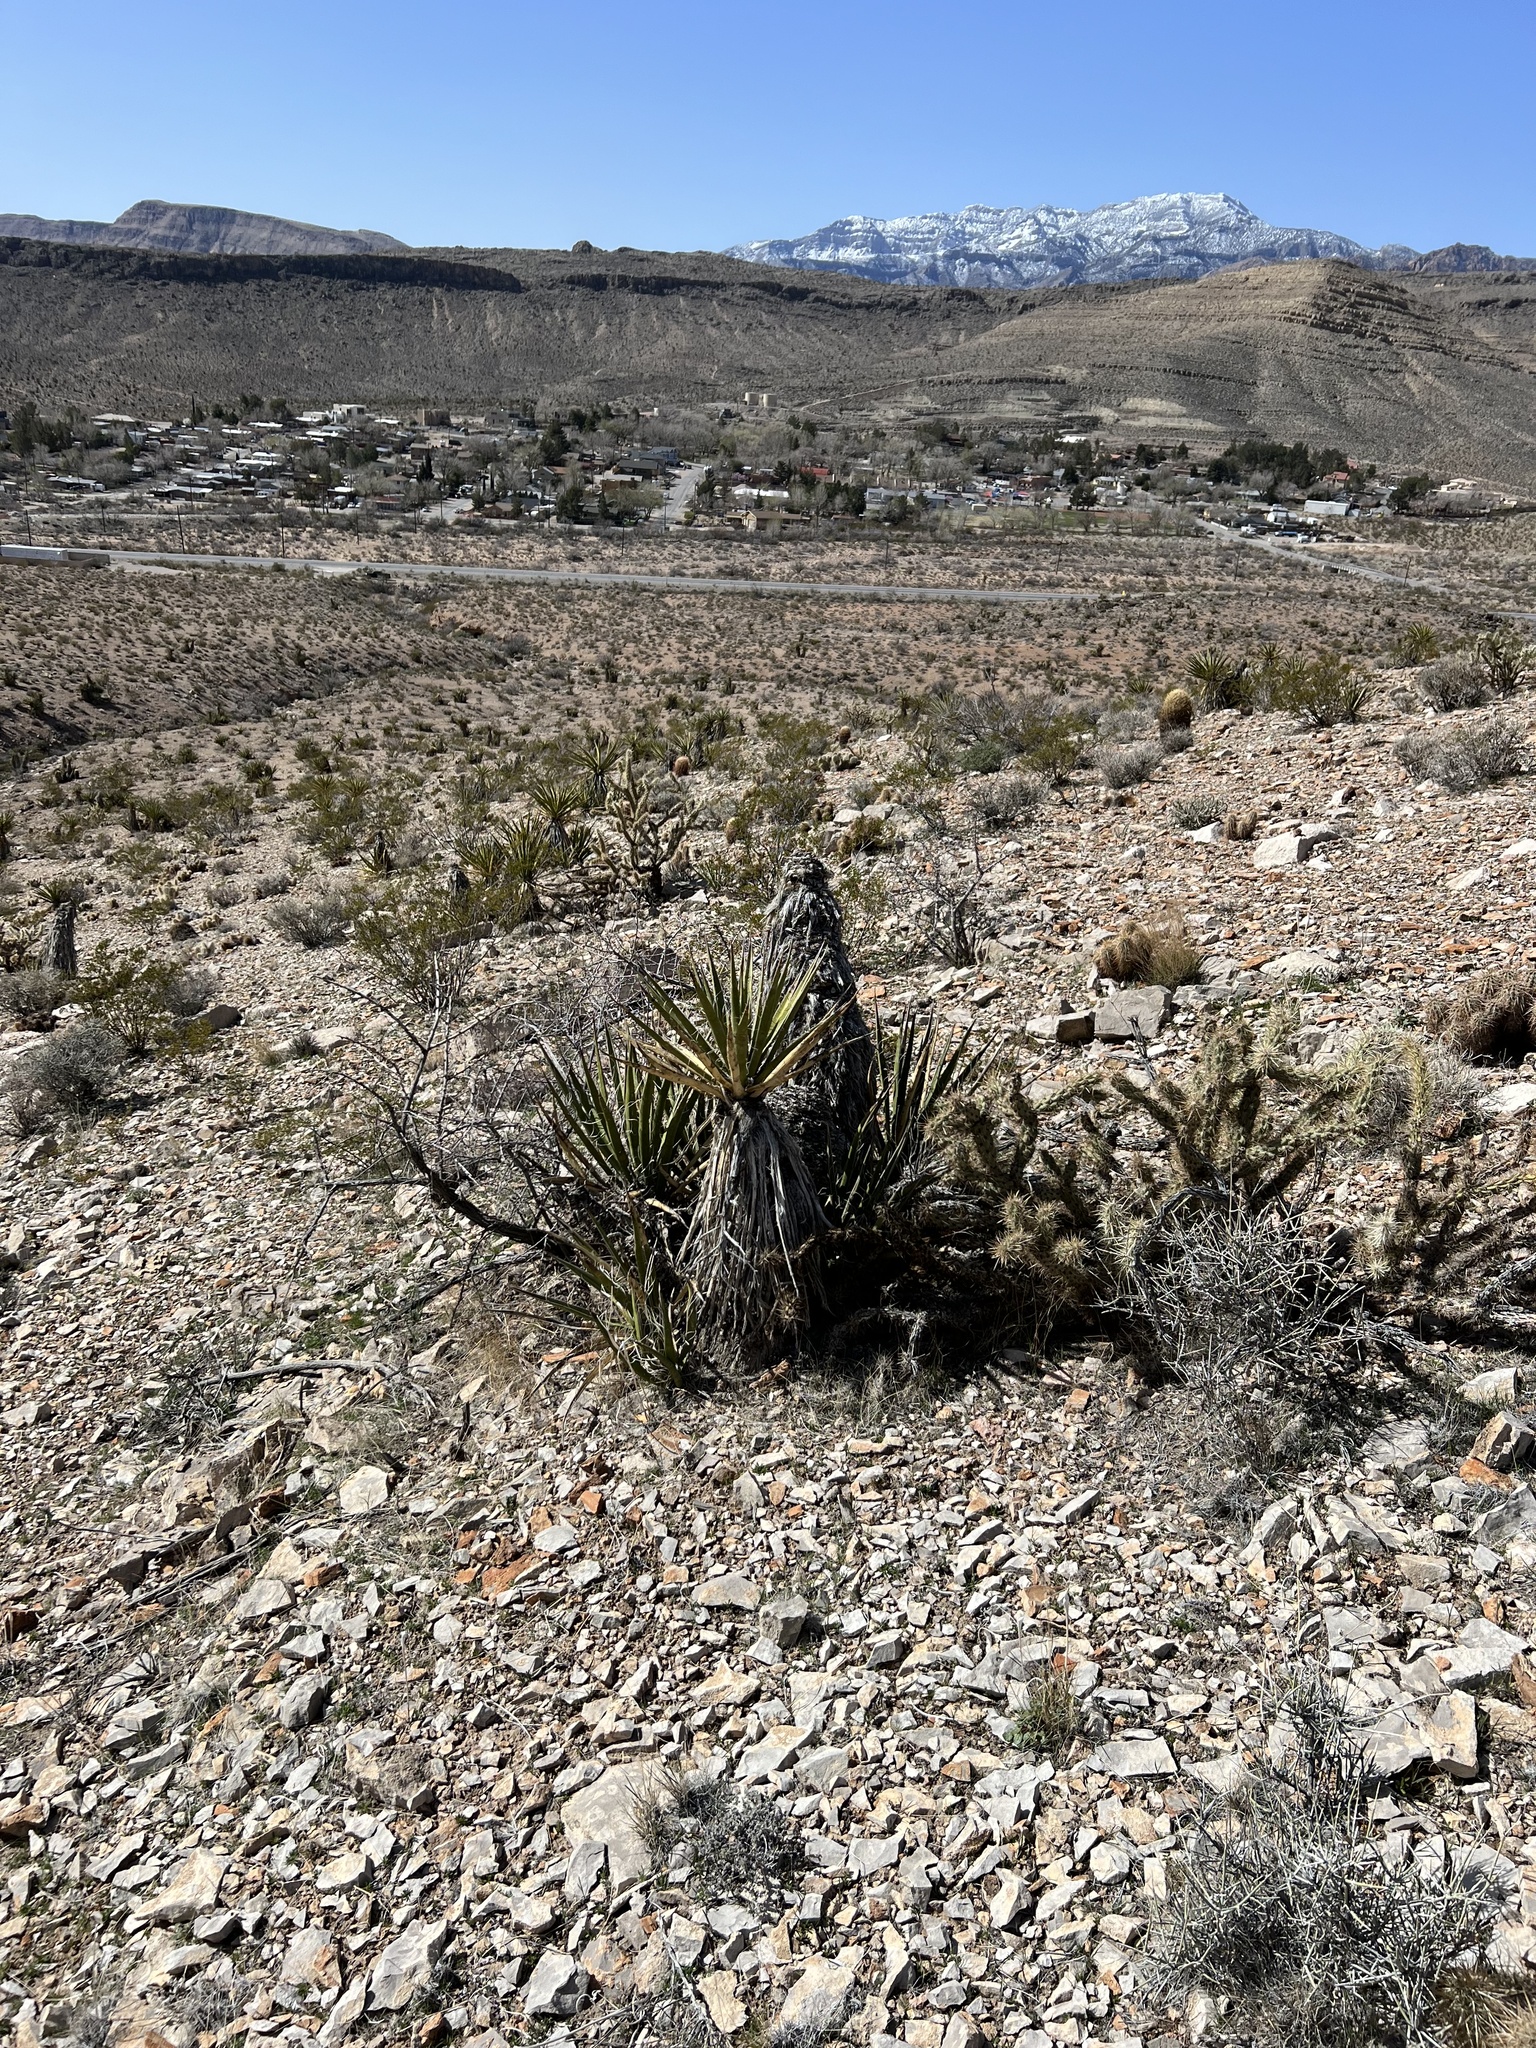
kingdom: Plantae
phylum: Tracheophyta
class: Liliopsida
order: Asparagales
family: Asparagaceae
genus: Yucca
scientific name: Yucca schidigera
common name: Mojave yucca
